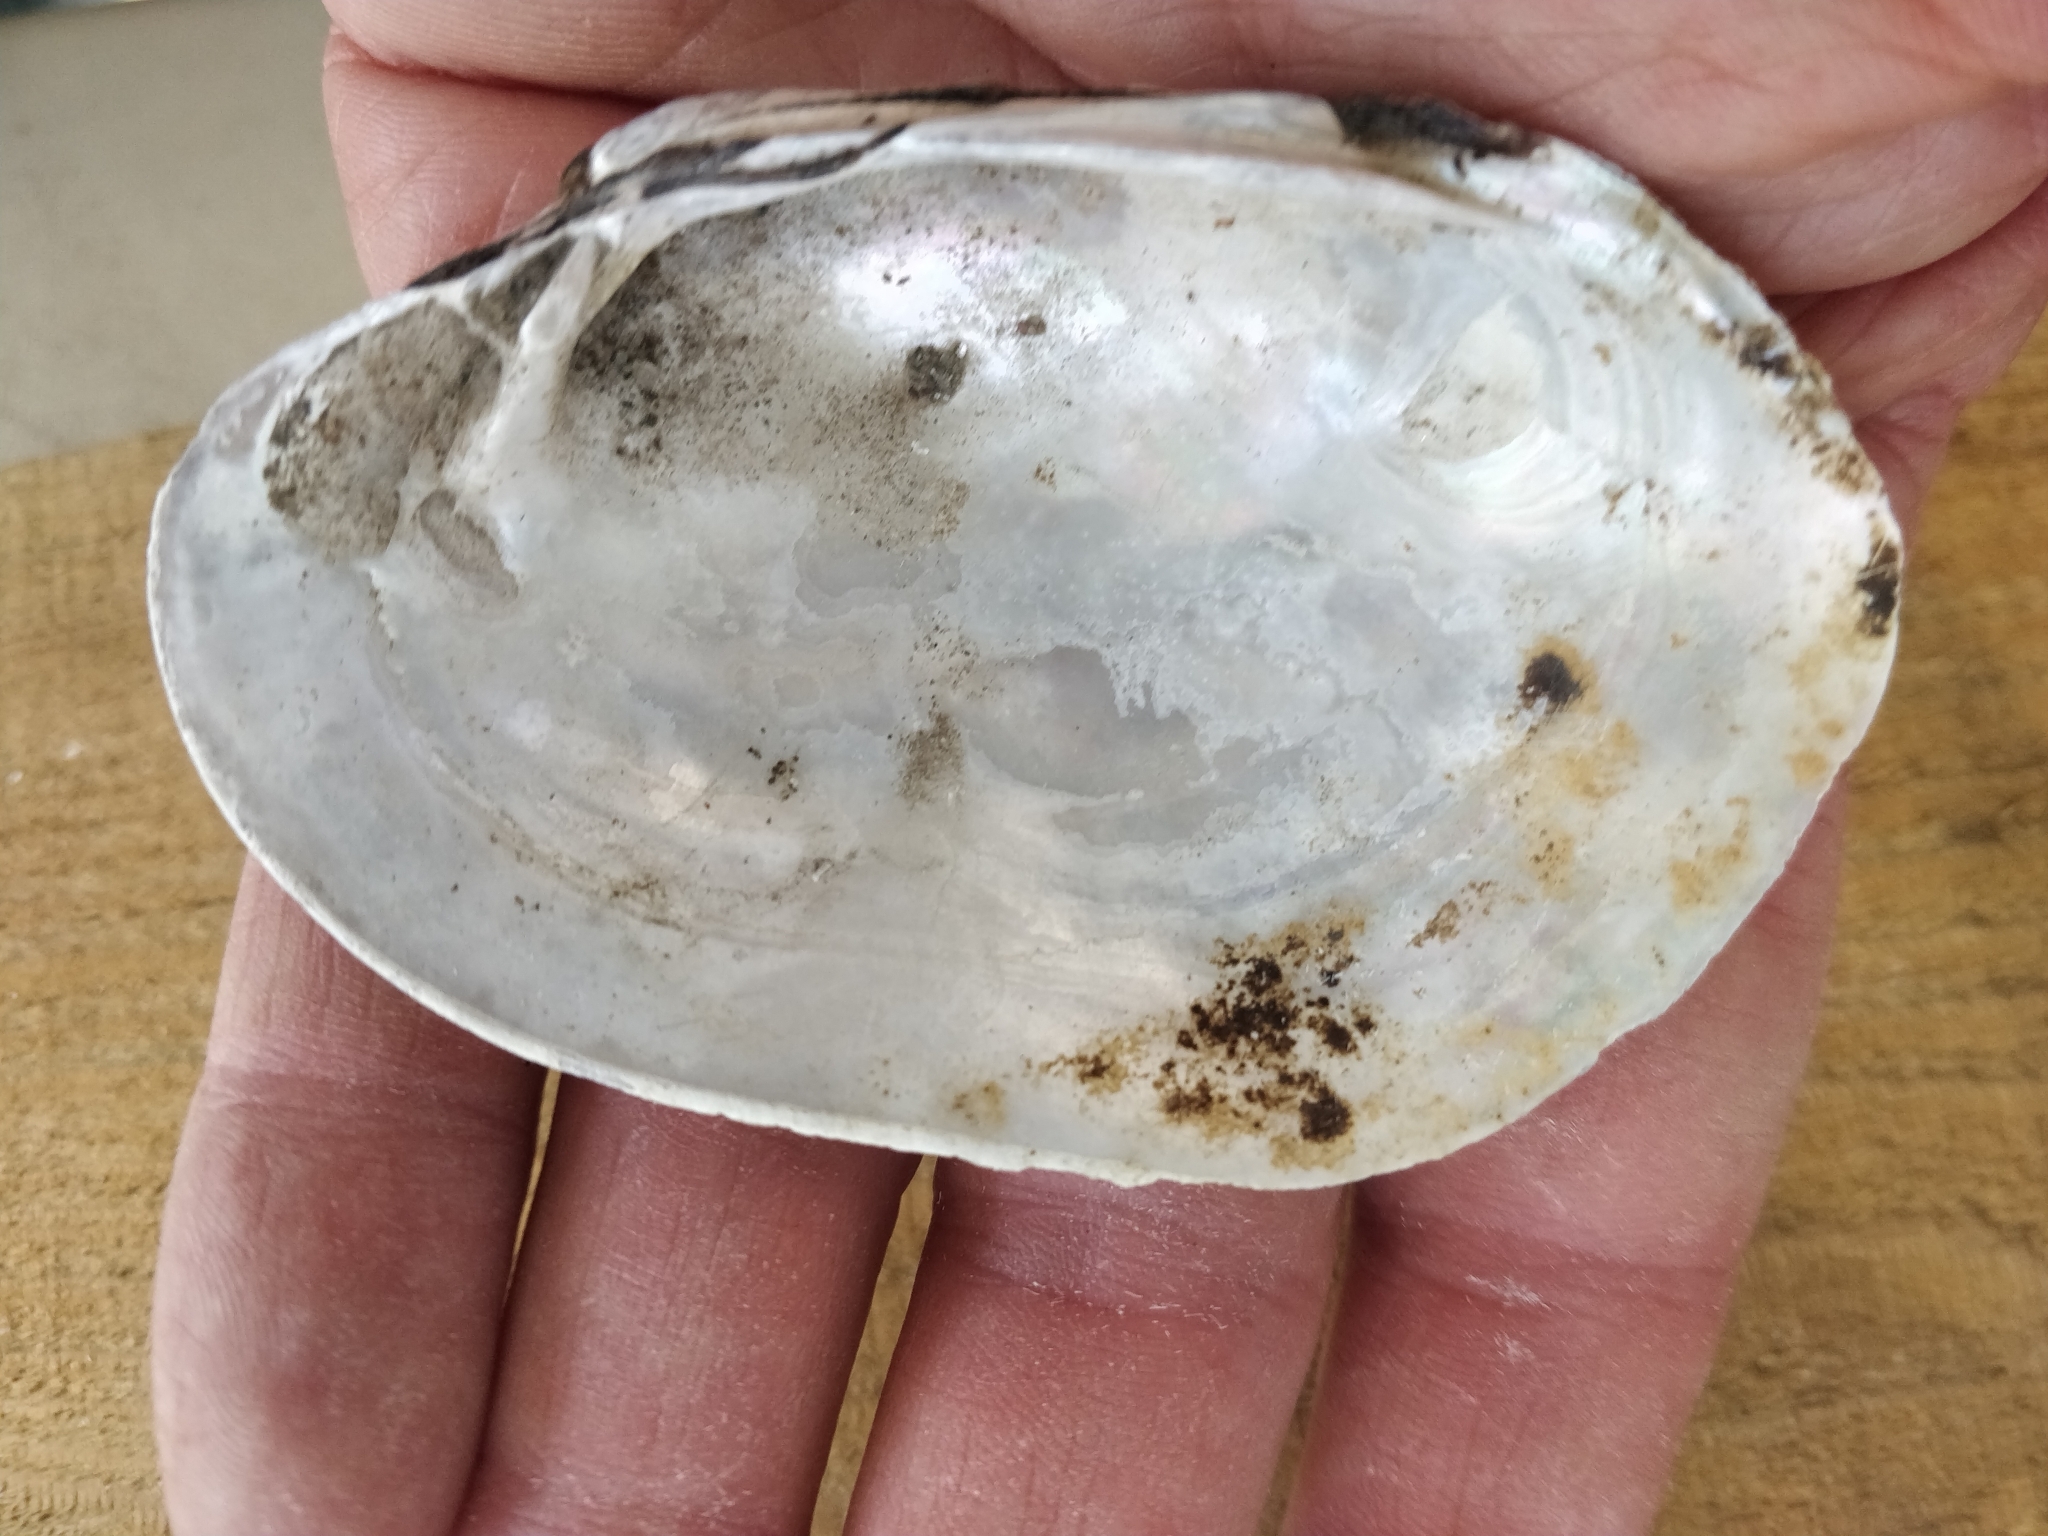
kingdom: Animalia
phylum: Mollusca
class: Bivalvia
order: Unionida
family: Unionidae
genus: Lampsilis
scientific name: Lampsilis cardium
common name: Plain pocketbook
